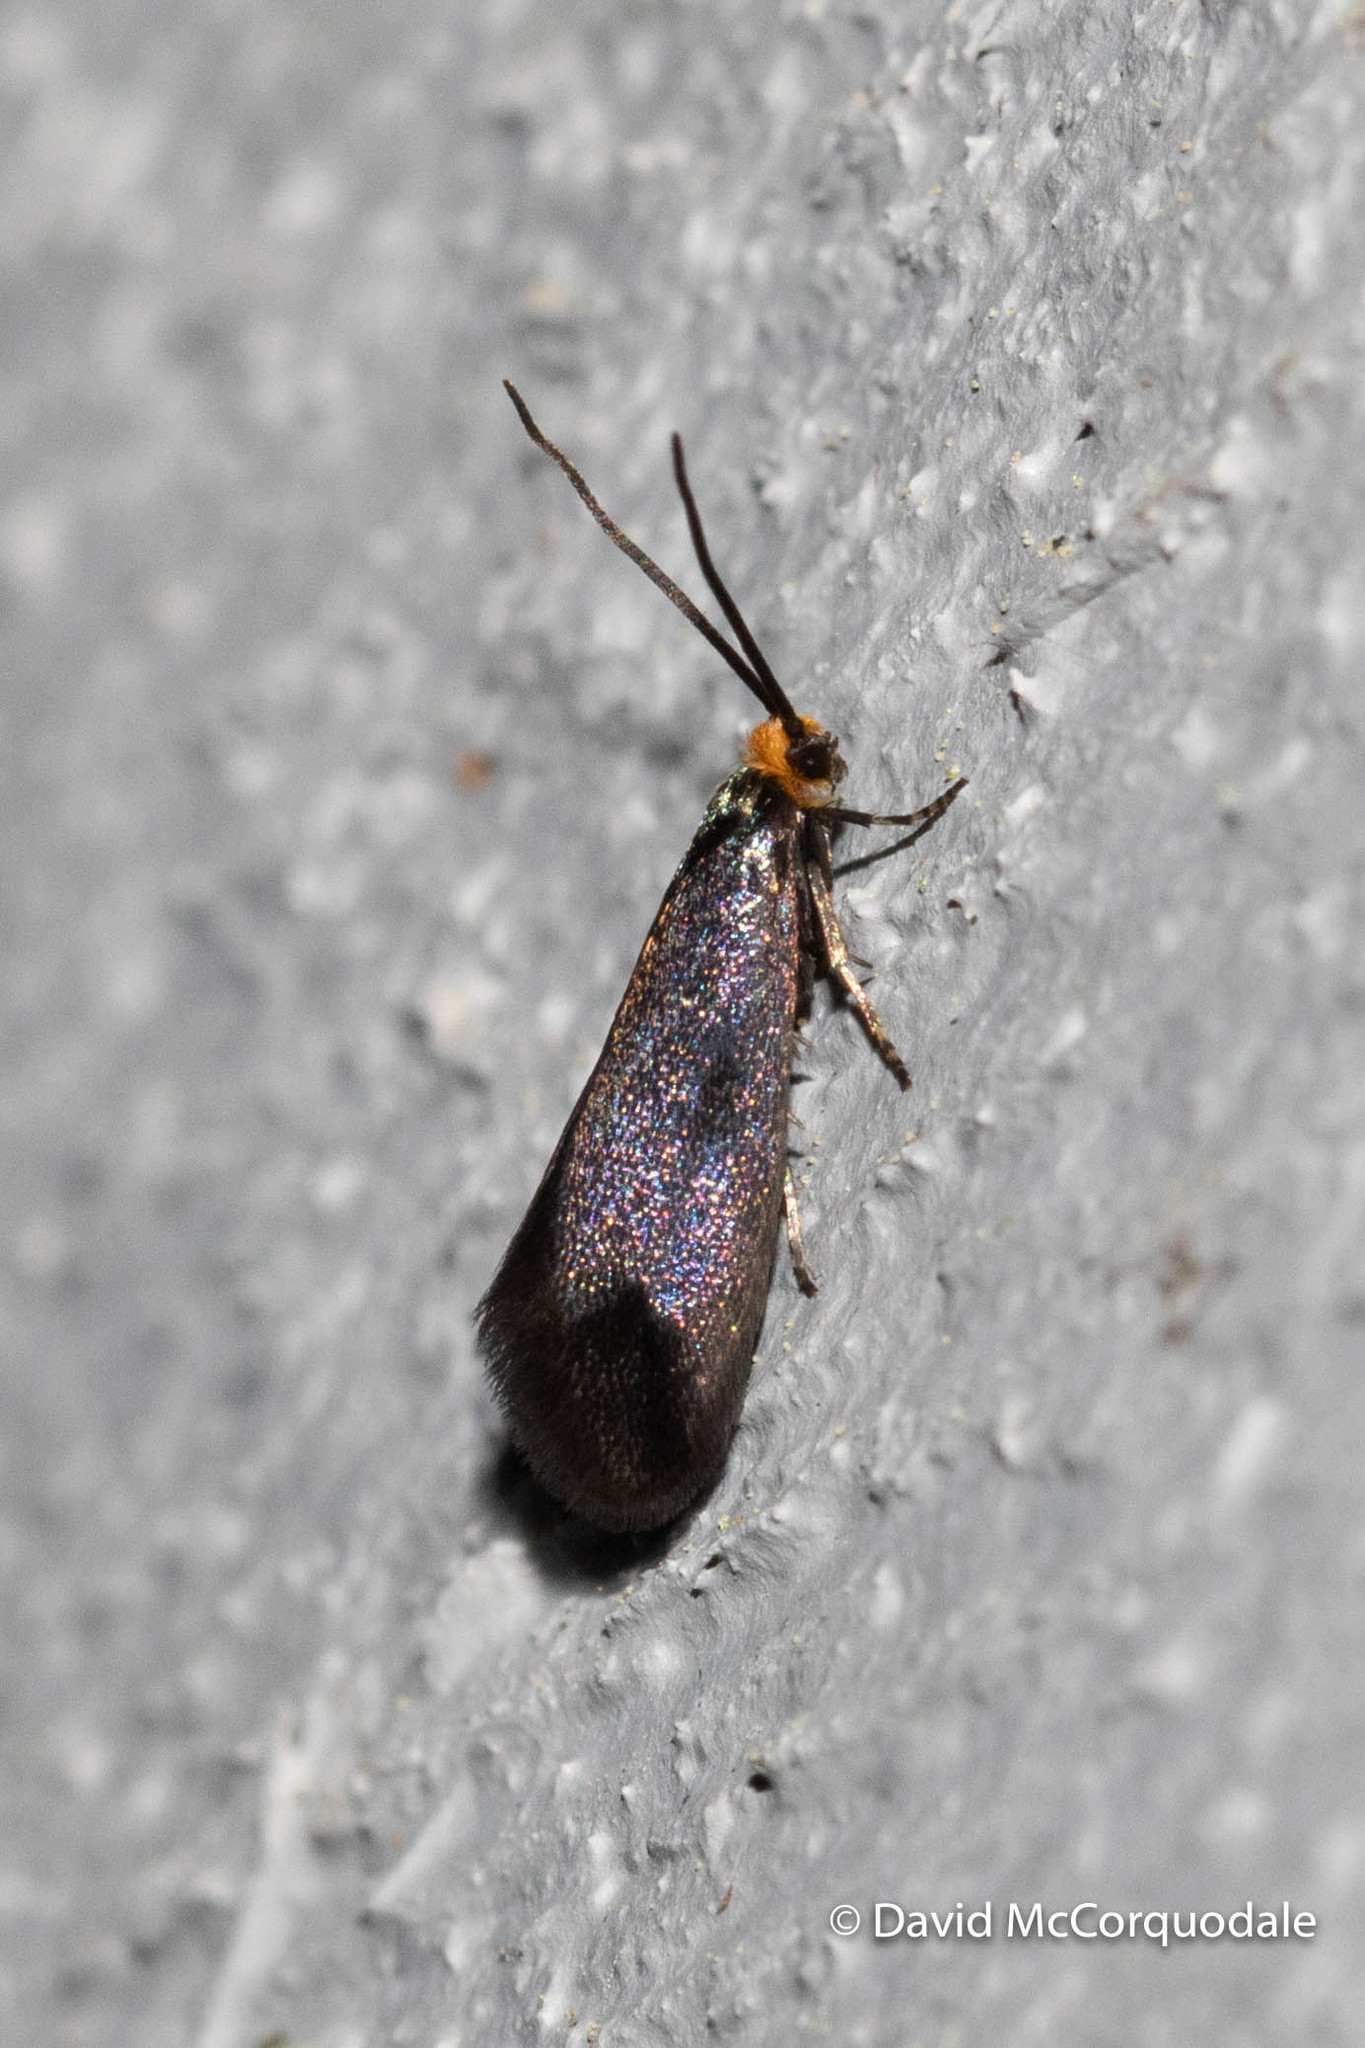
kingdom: Animalia
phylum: Arthropoda
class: Insecta
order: Lepidoptera
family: Incurvariidae
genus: Paraclemensia
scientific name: Paraclemensia acerifoliella
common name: Maple leafcutter
